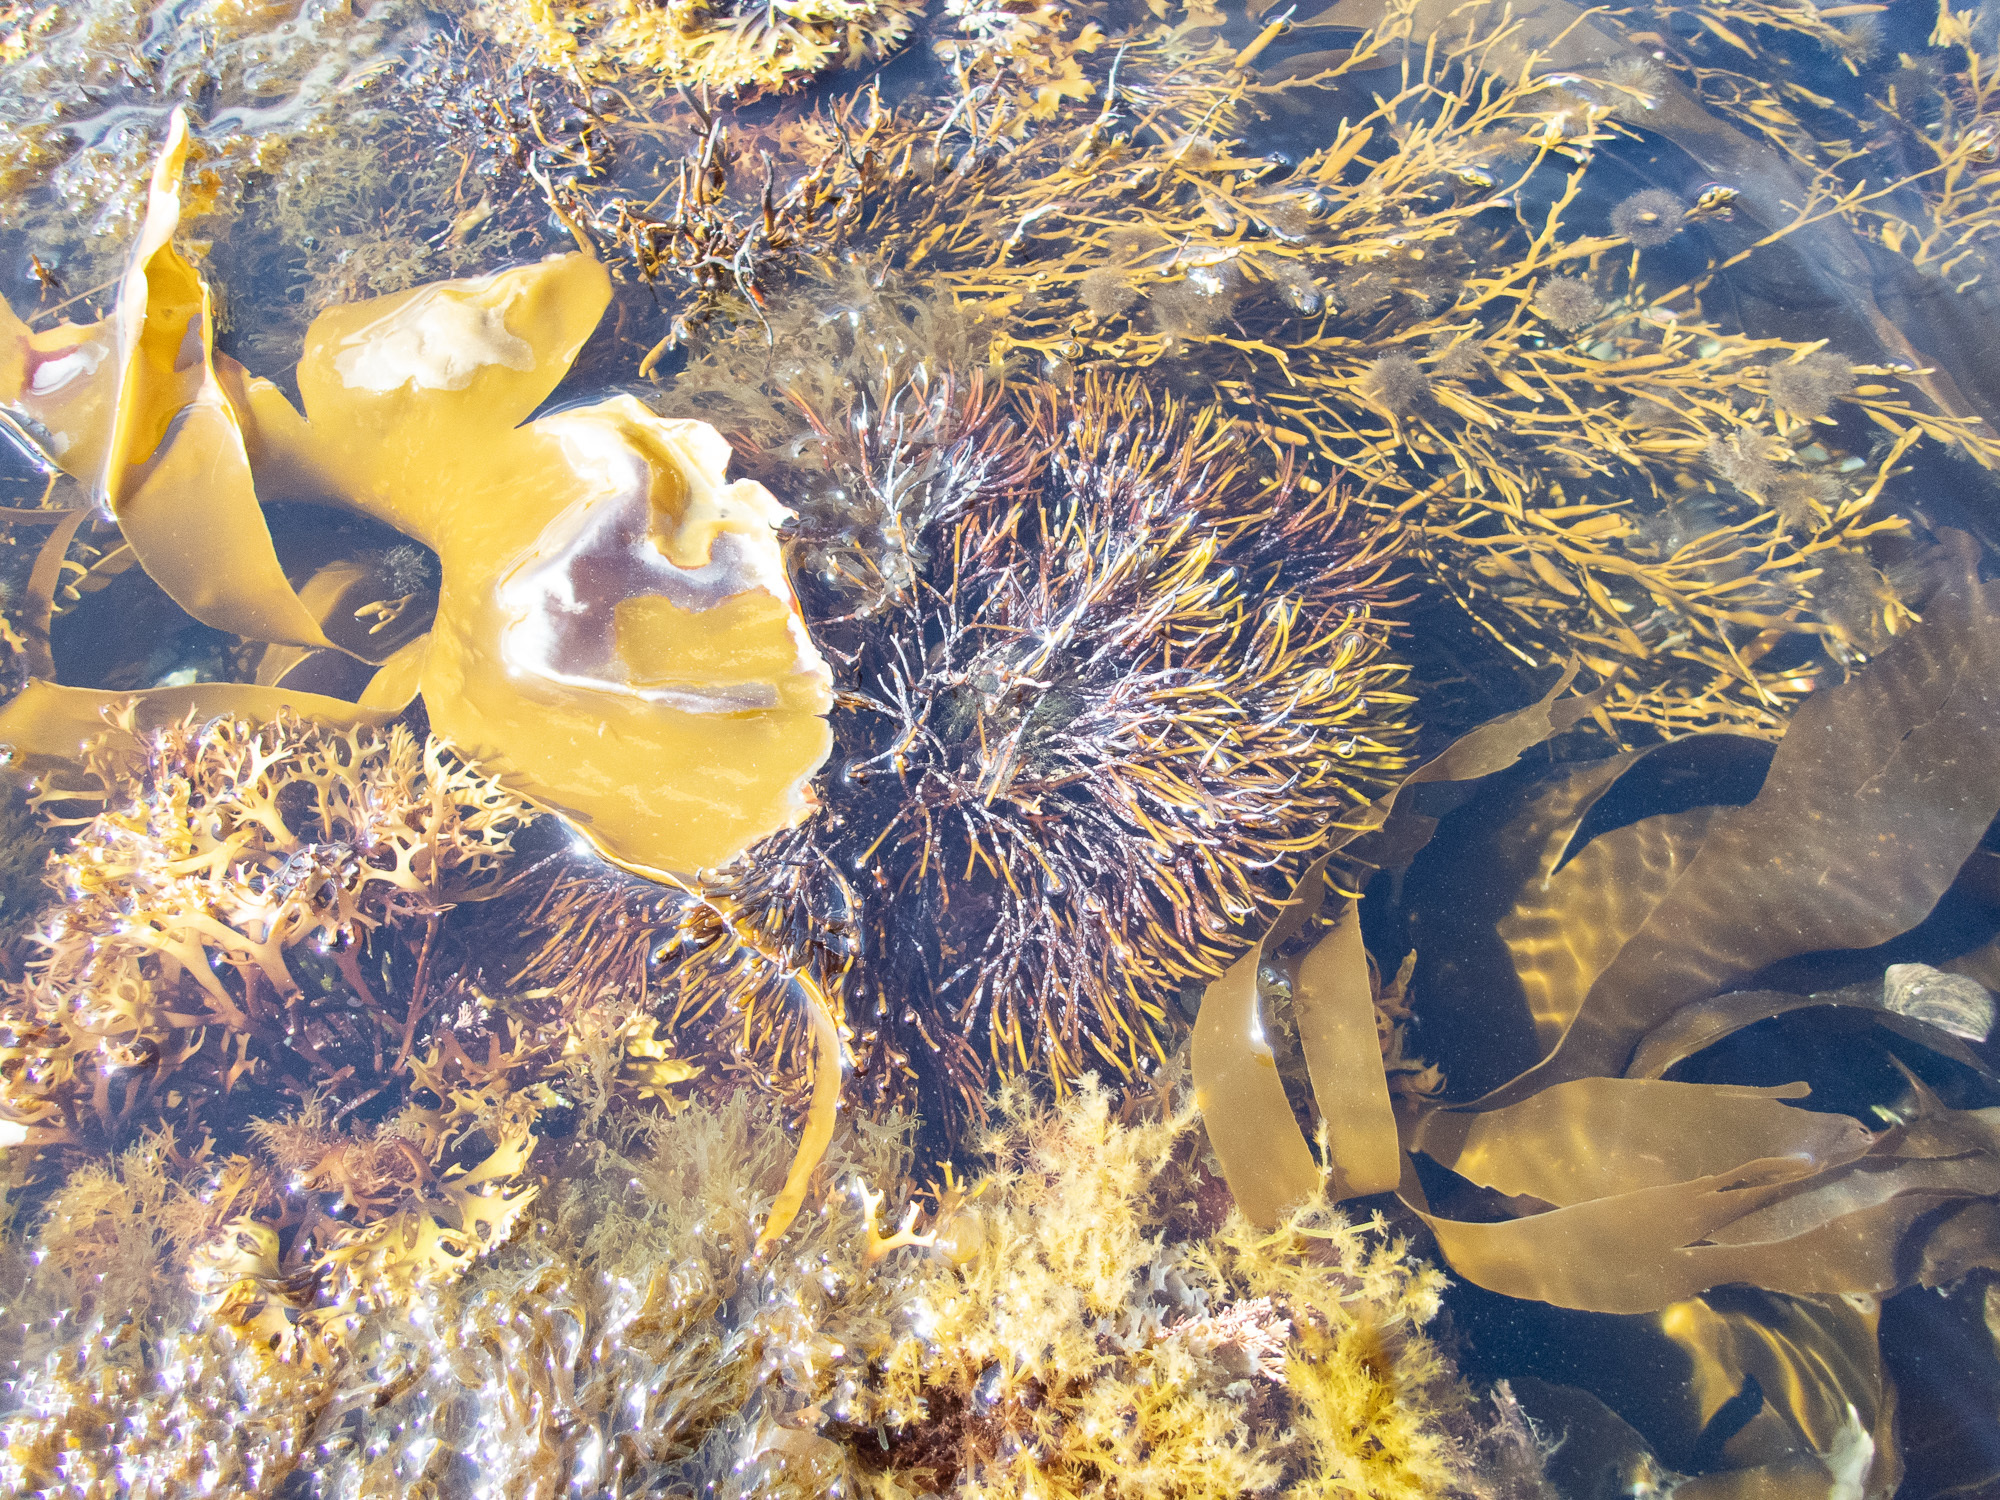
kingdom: Plantae
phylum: Rhodophyta
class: Florideophyceae
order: Gigartinales
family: Furcellariaceae
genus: Furcellaria
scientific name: Furcellaria lumbricalis
